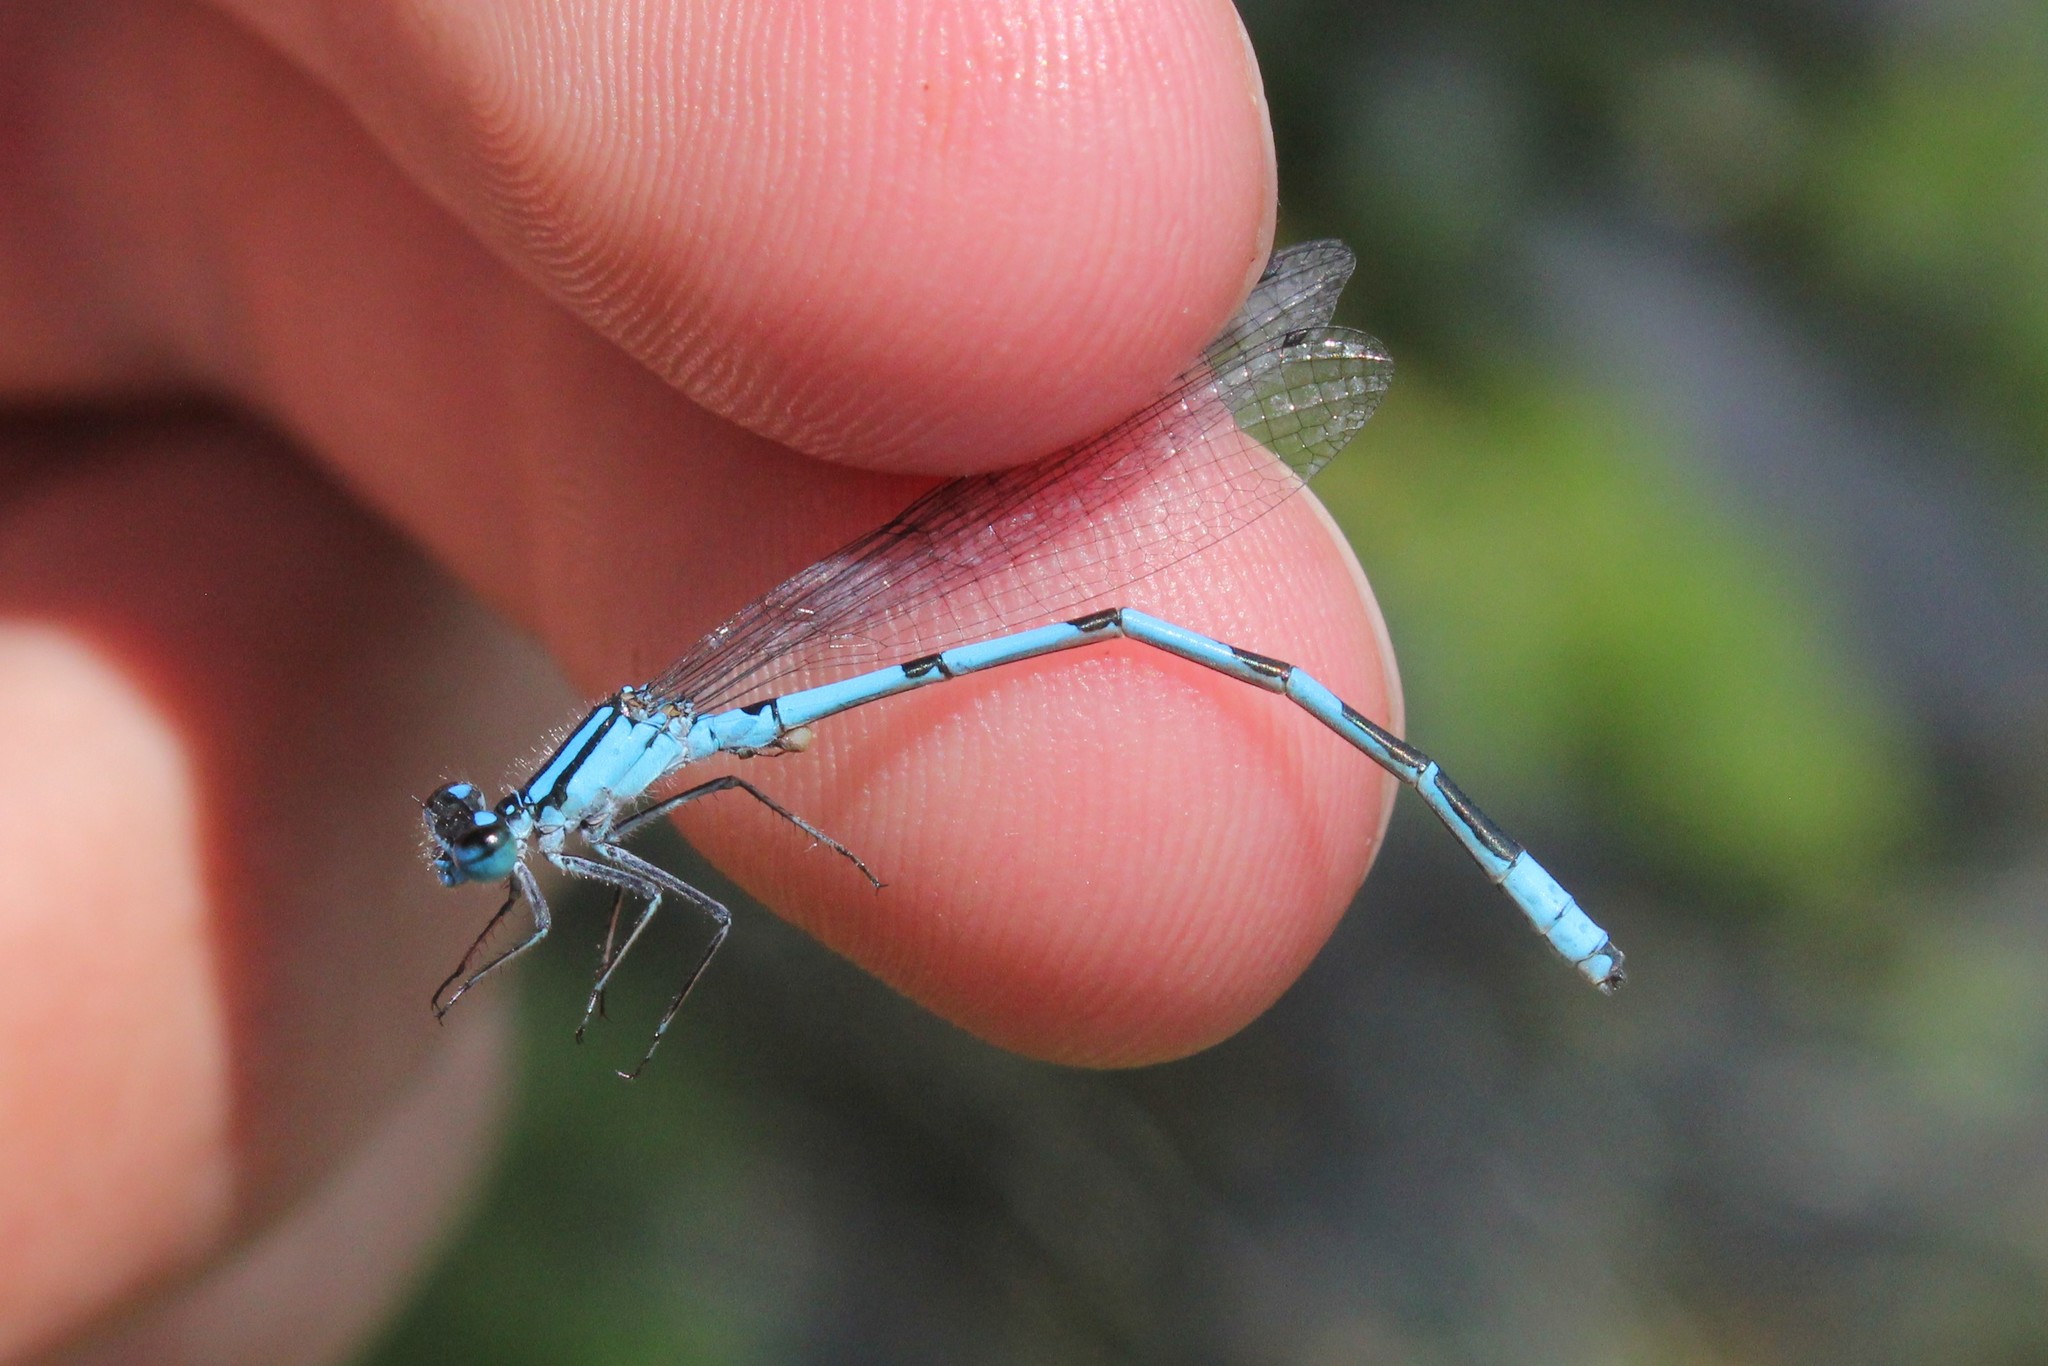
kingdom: Animalia
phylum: Arthropoda
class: Insecta
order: Odonata
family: Coenagrionidae
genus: Enallagma
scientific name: Enallagma ebrium
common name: Marsh bluet
